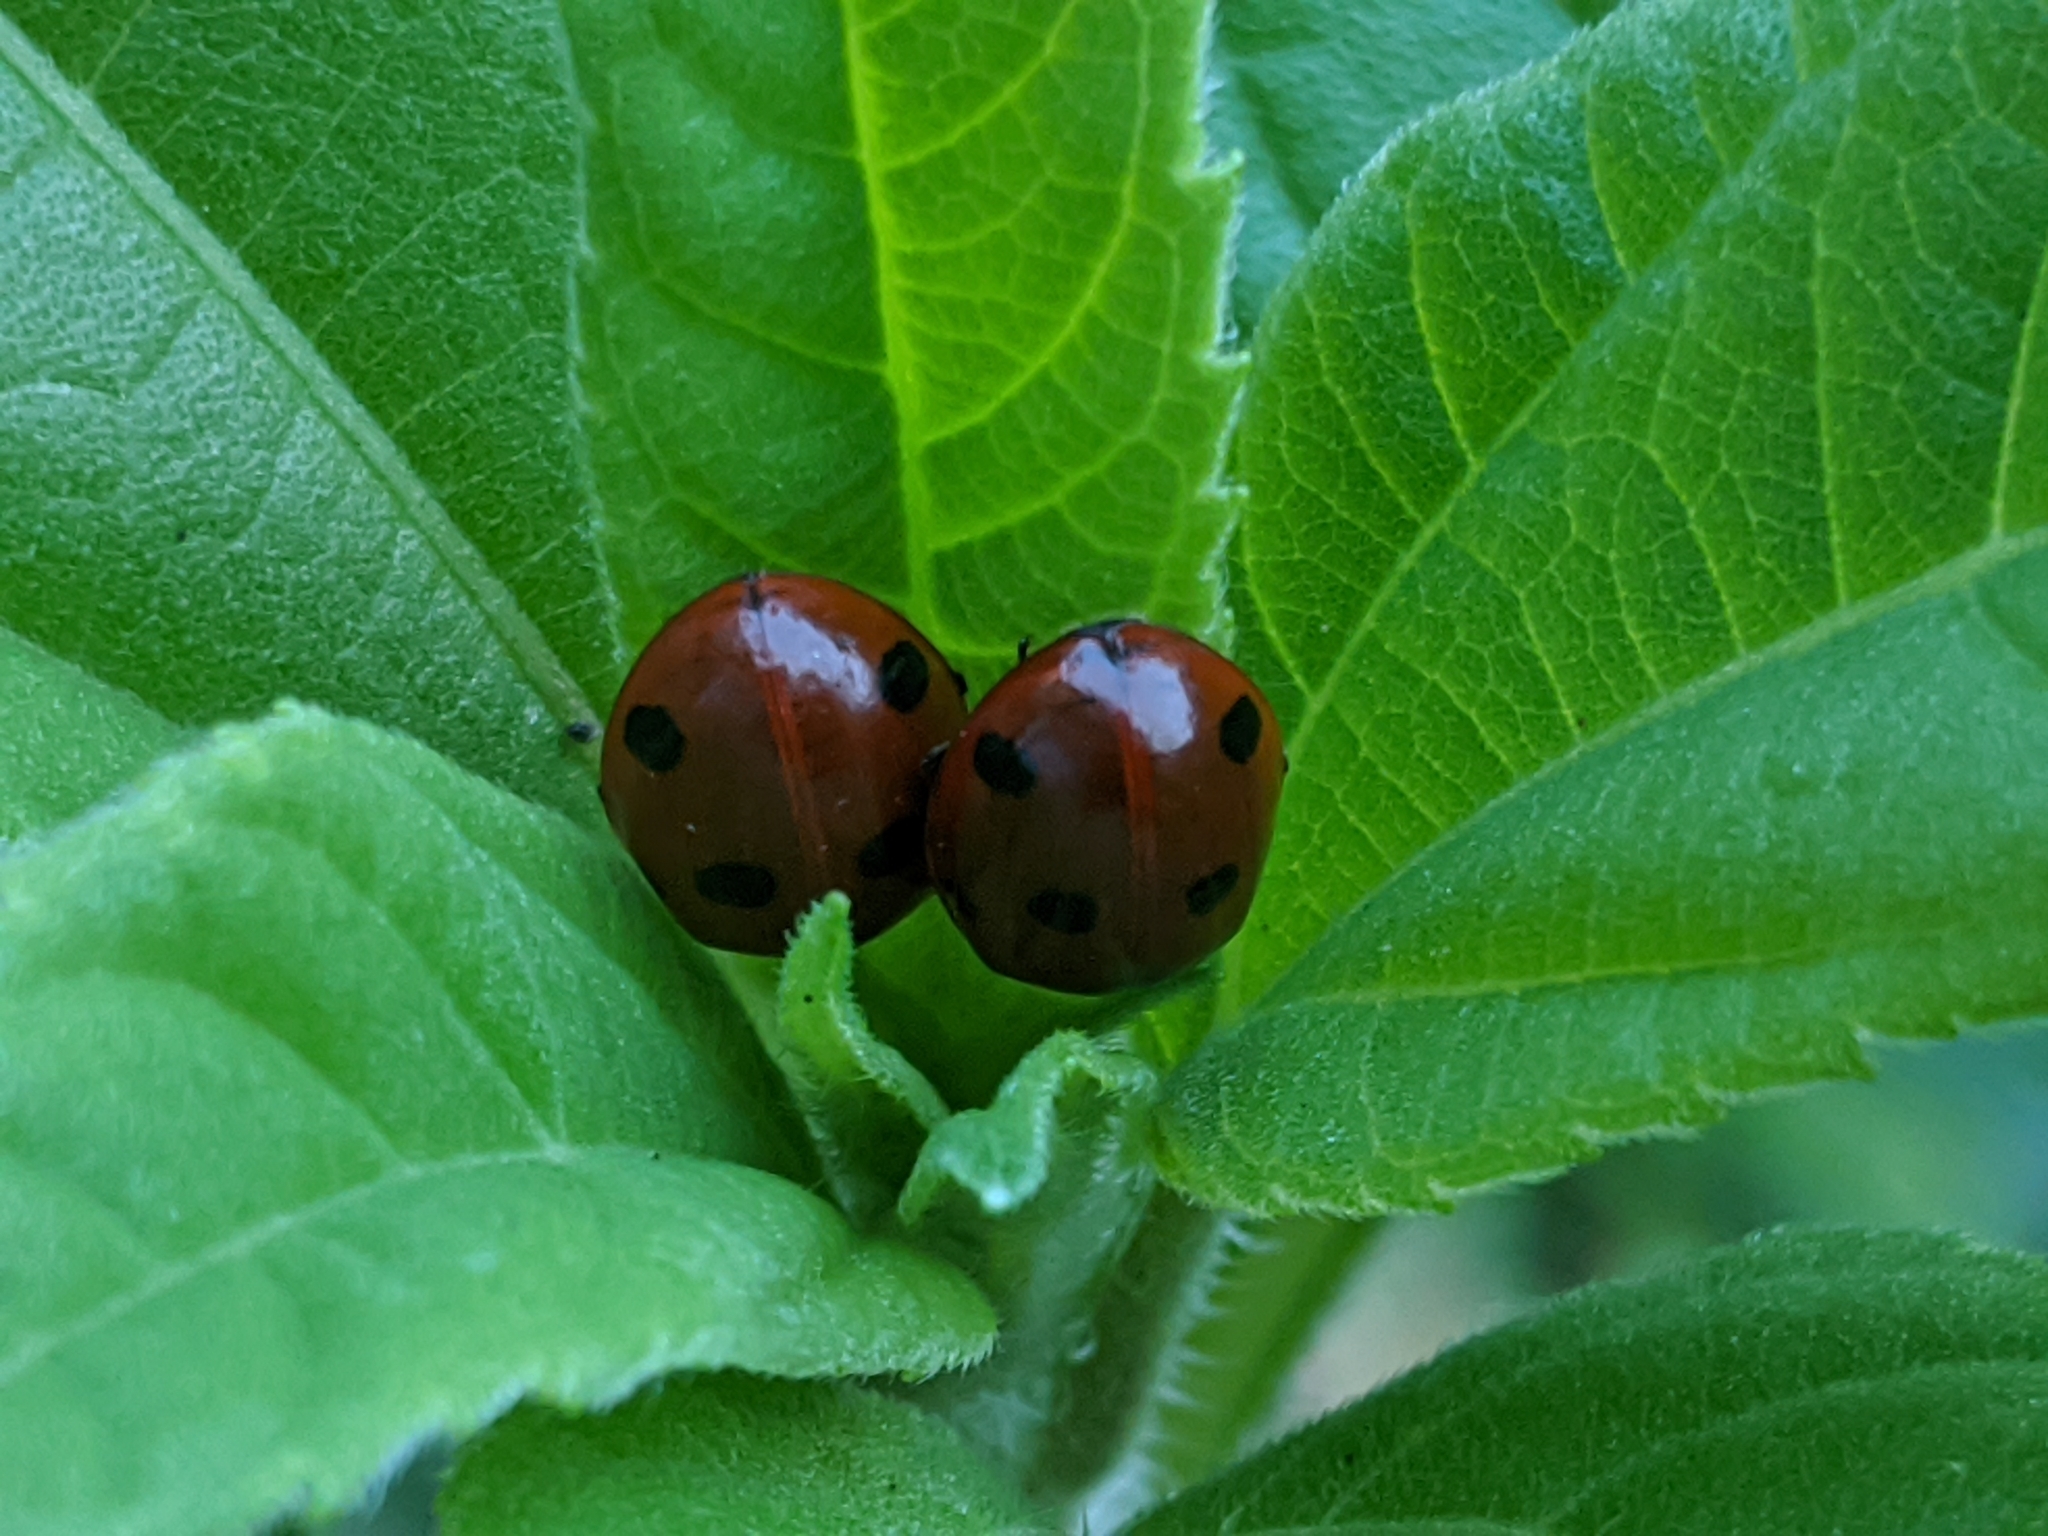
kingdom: Animalia
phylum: Arthropoda
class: Insecta
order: Coleoptera
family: Coccinellidae
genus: Coccinella
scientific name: Coccinella septempunctata
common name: Sevenspotted lady beetle
